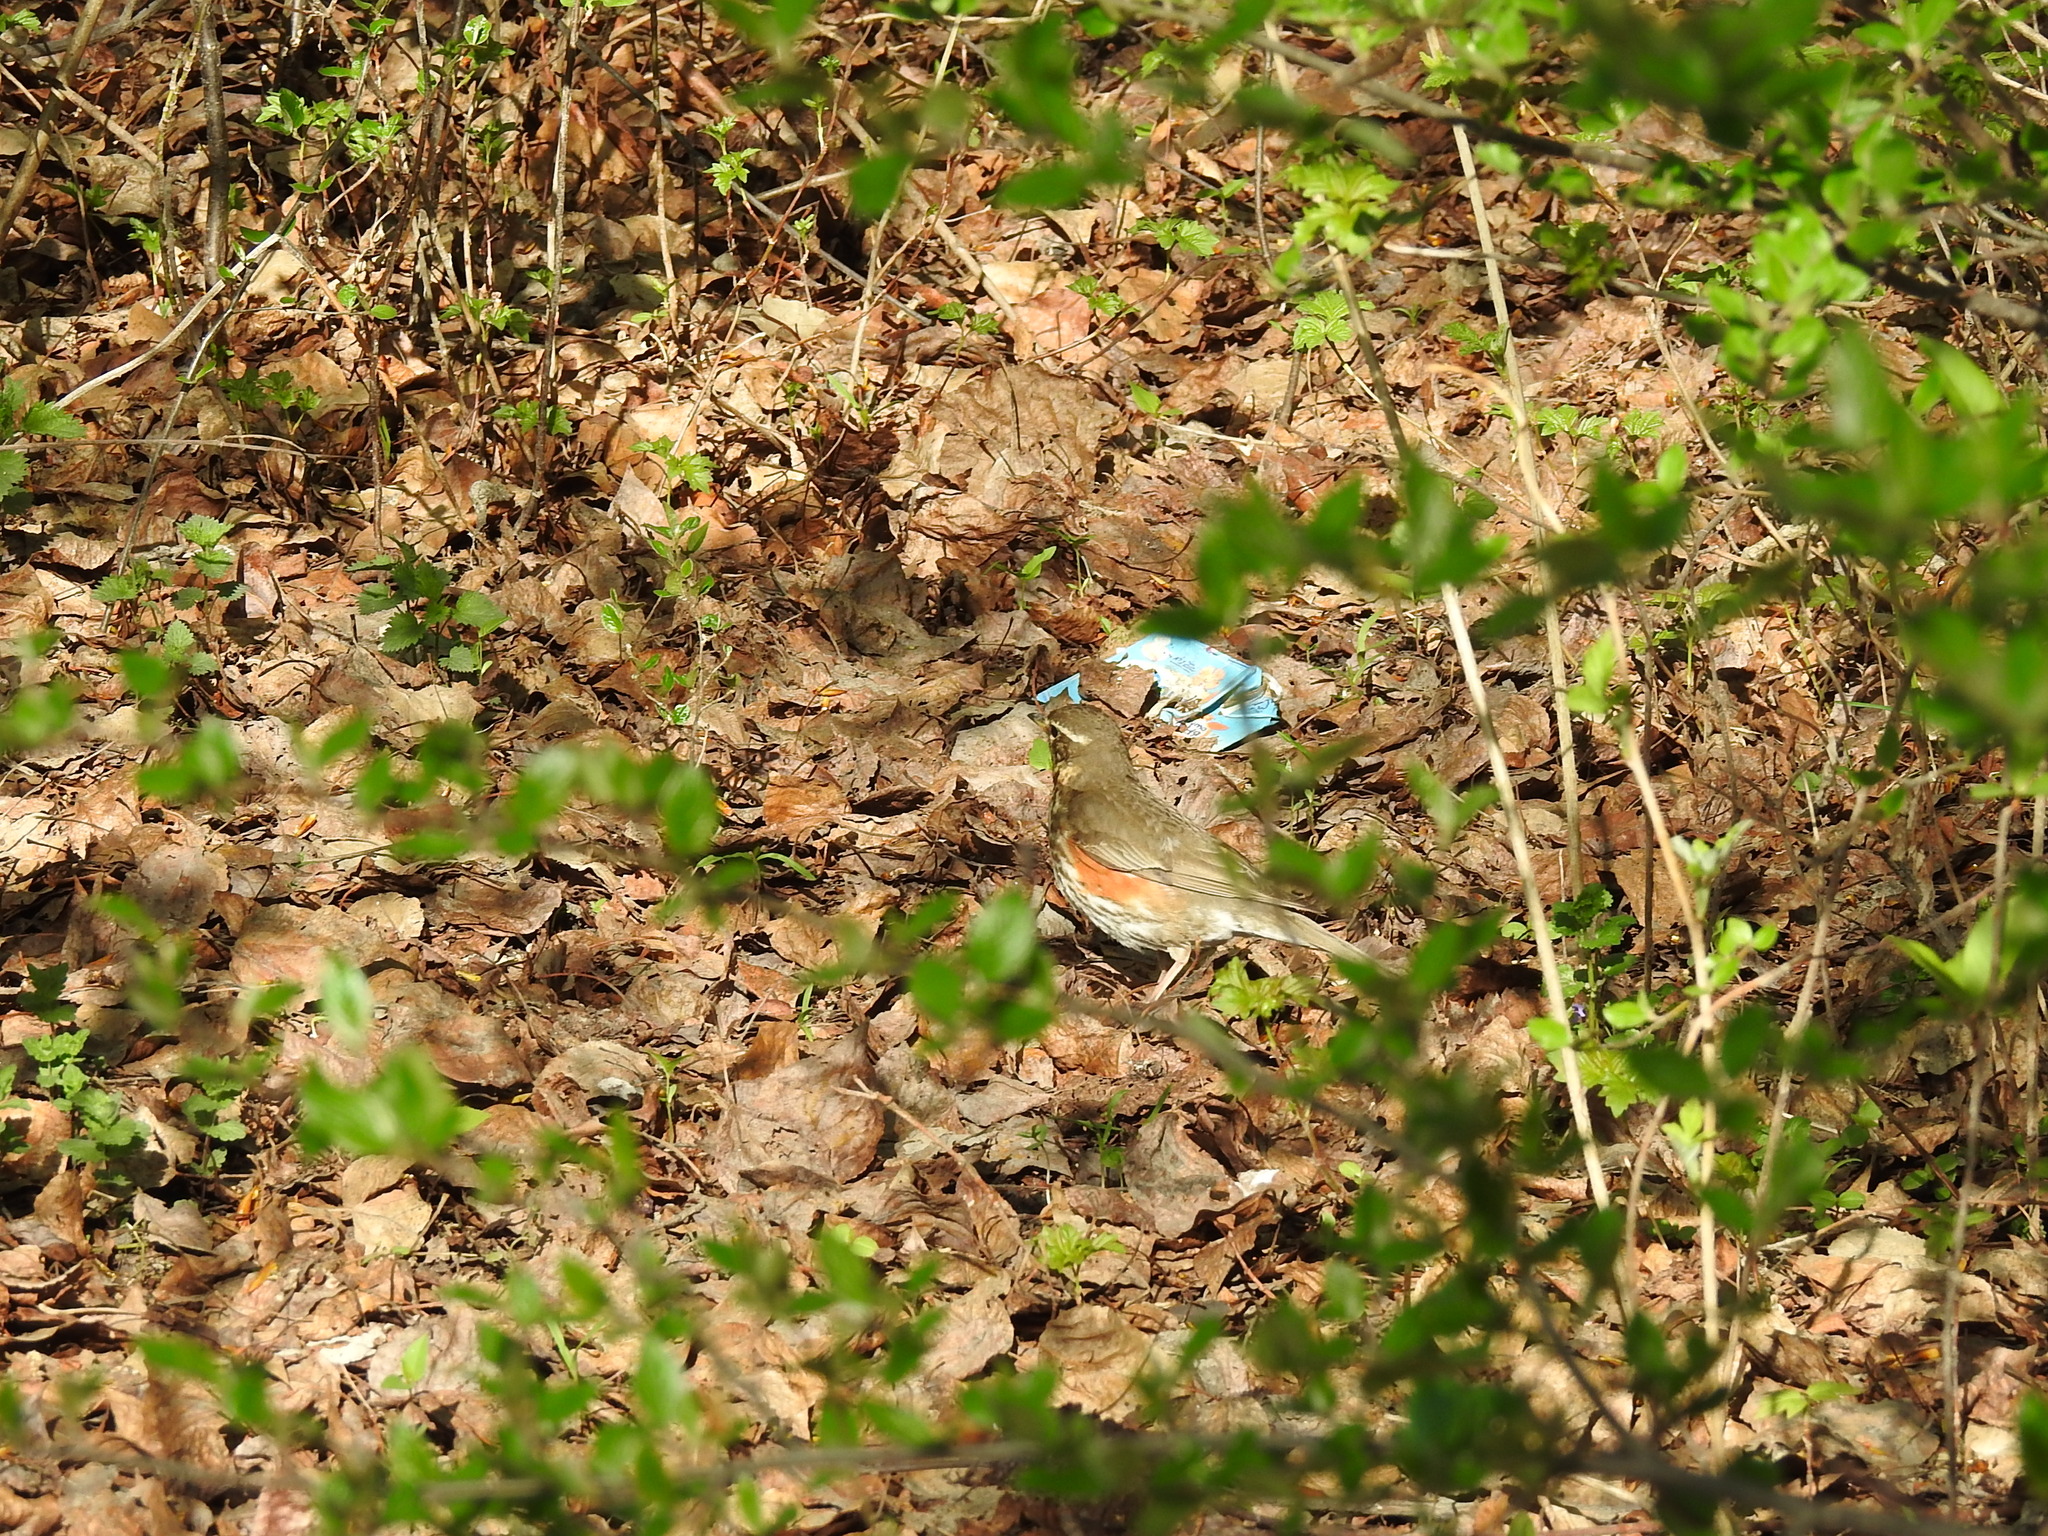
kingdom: Animalia
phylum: Chordata
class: Aves
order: Passeriformes
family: Turdidae
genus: Turdus
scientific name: Turdus iliacus
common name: Redwing
